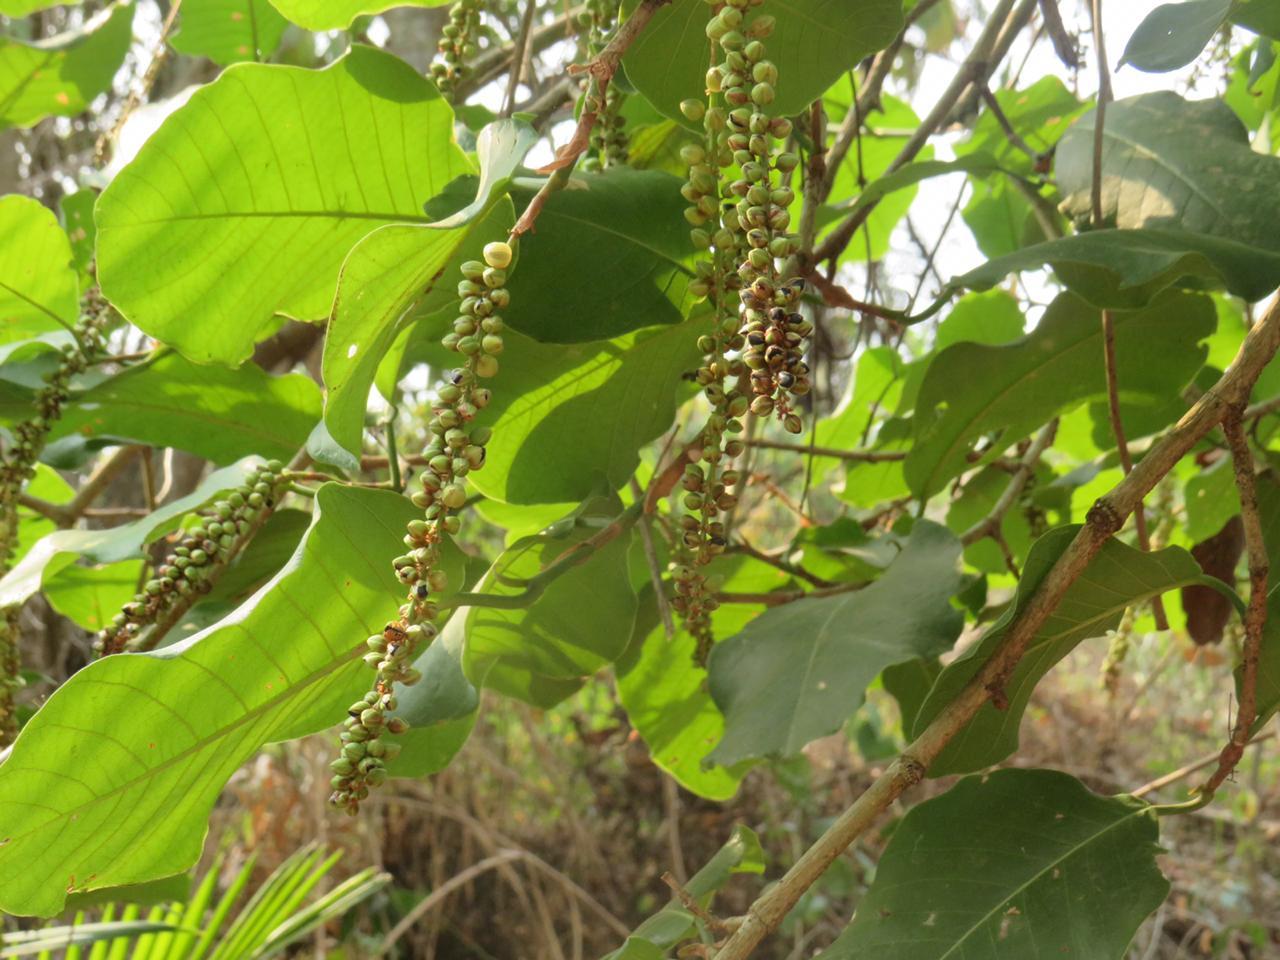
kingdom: Plantae
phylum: Tracheophyta
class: Magnoliopsida
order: Caryophyllales
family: Polygonaceae
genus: Coccoloba
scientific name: Coccoloba caracasana
